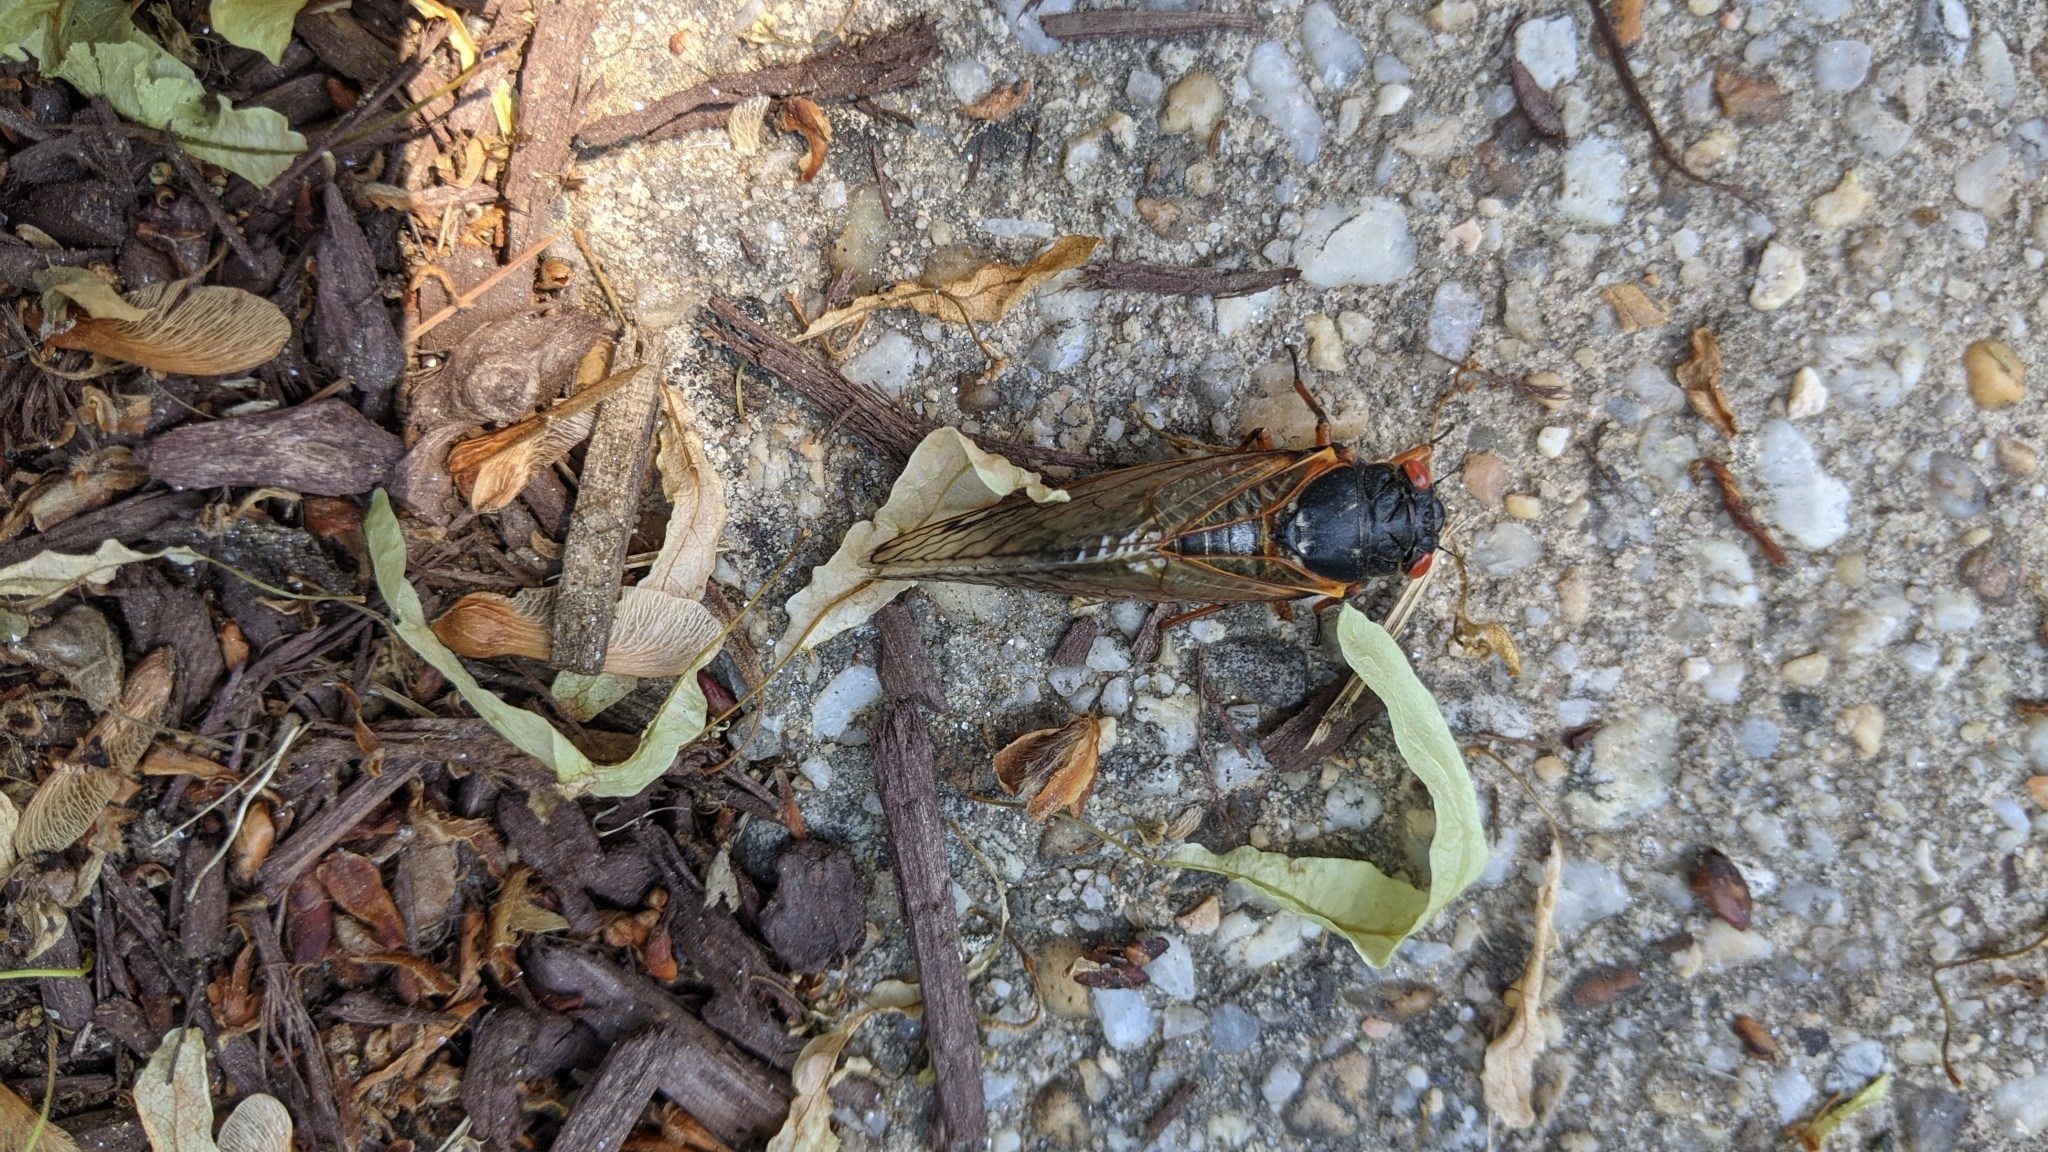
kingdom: Animalia
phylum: Arthropoda
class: Insecta
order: Hemiptera
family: Cicadidae
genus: Magicicada
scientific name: Magicicada
